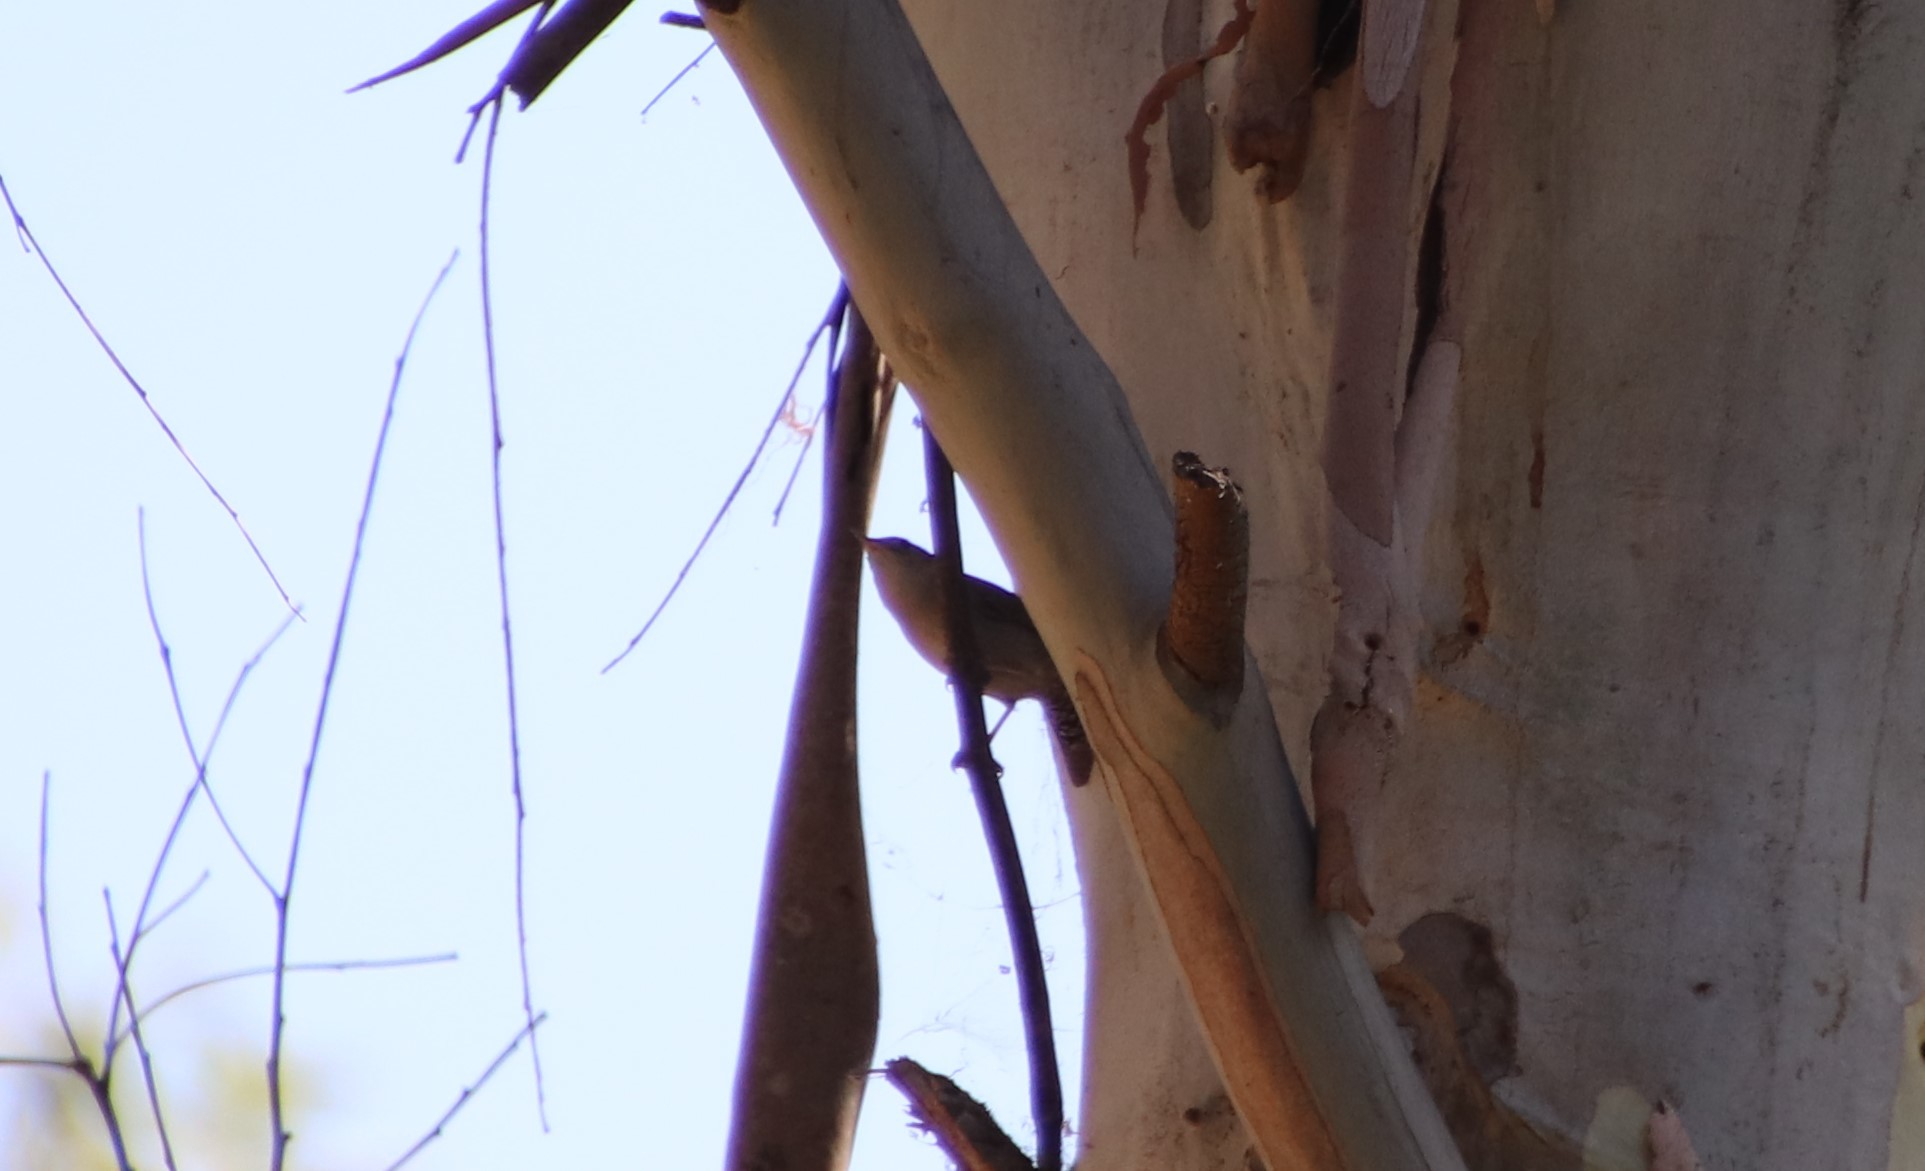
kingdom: Animalia
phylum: Chordata
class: Aves
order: Passeriformes
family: Troglodytidae
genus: Troglodytes
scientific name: Troglodytes aedon
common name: House wren
